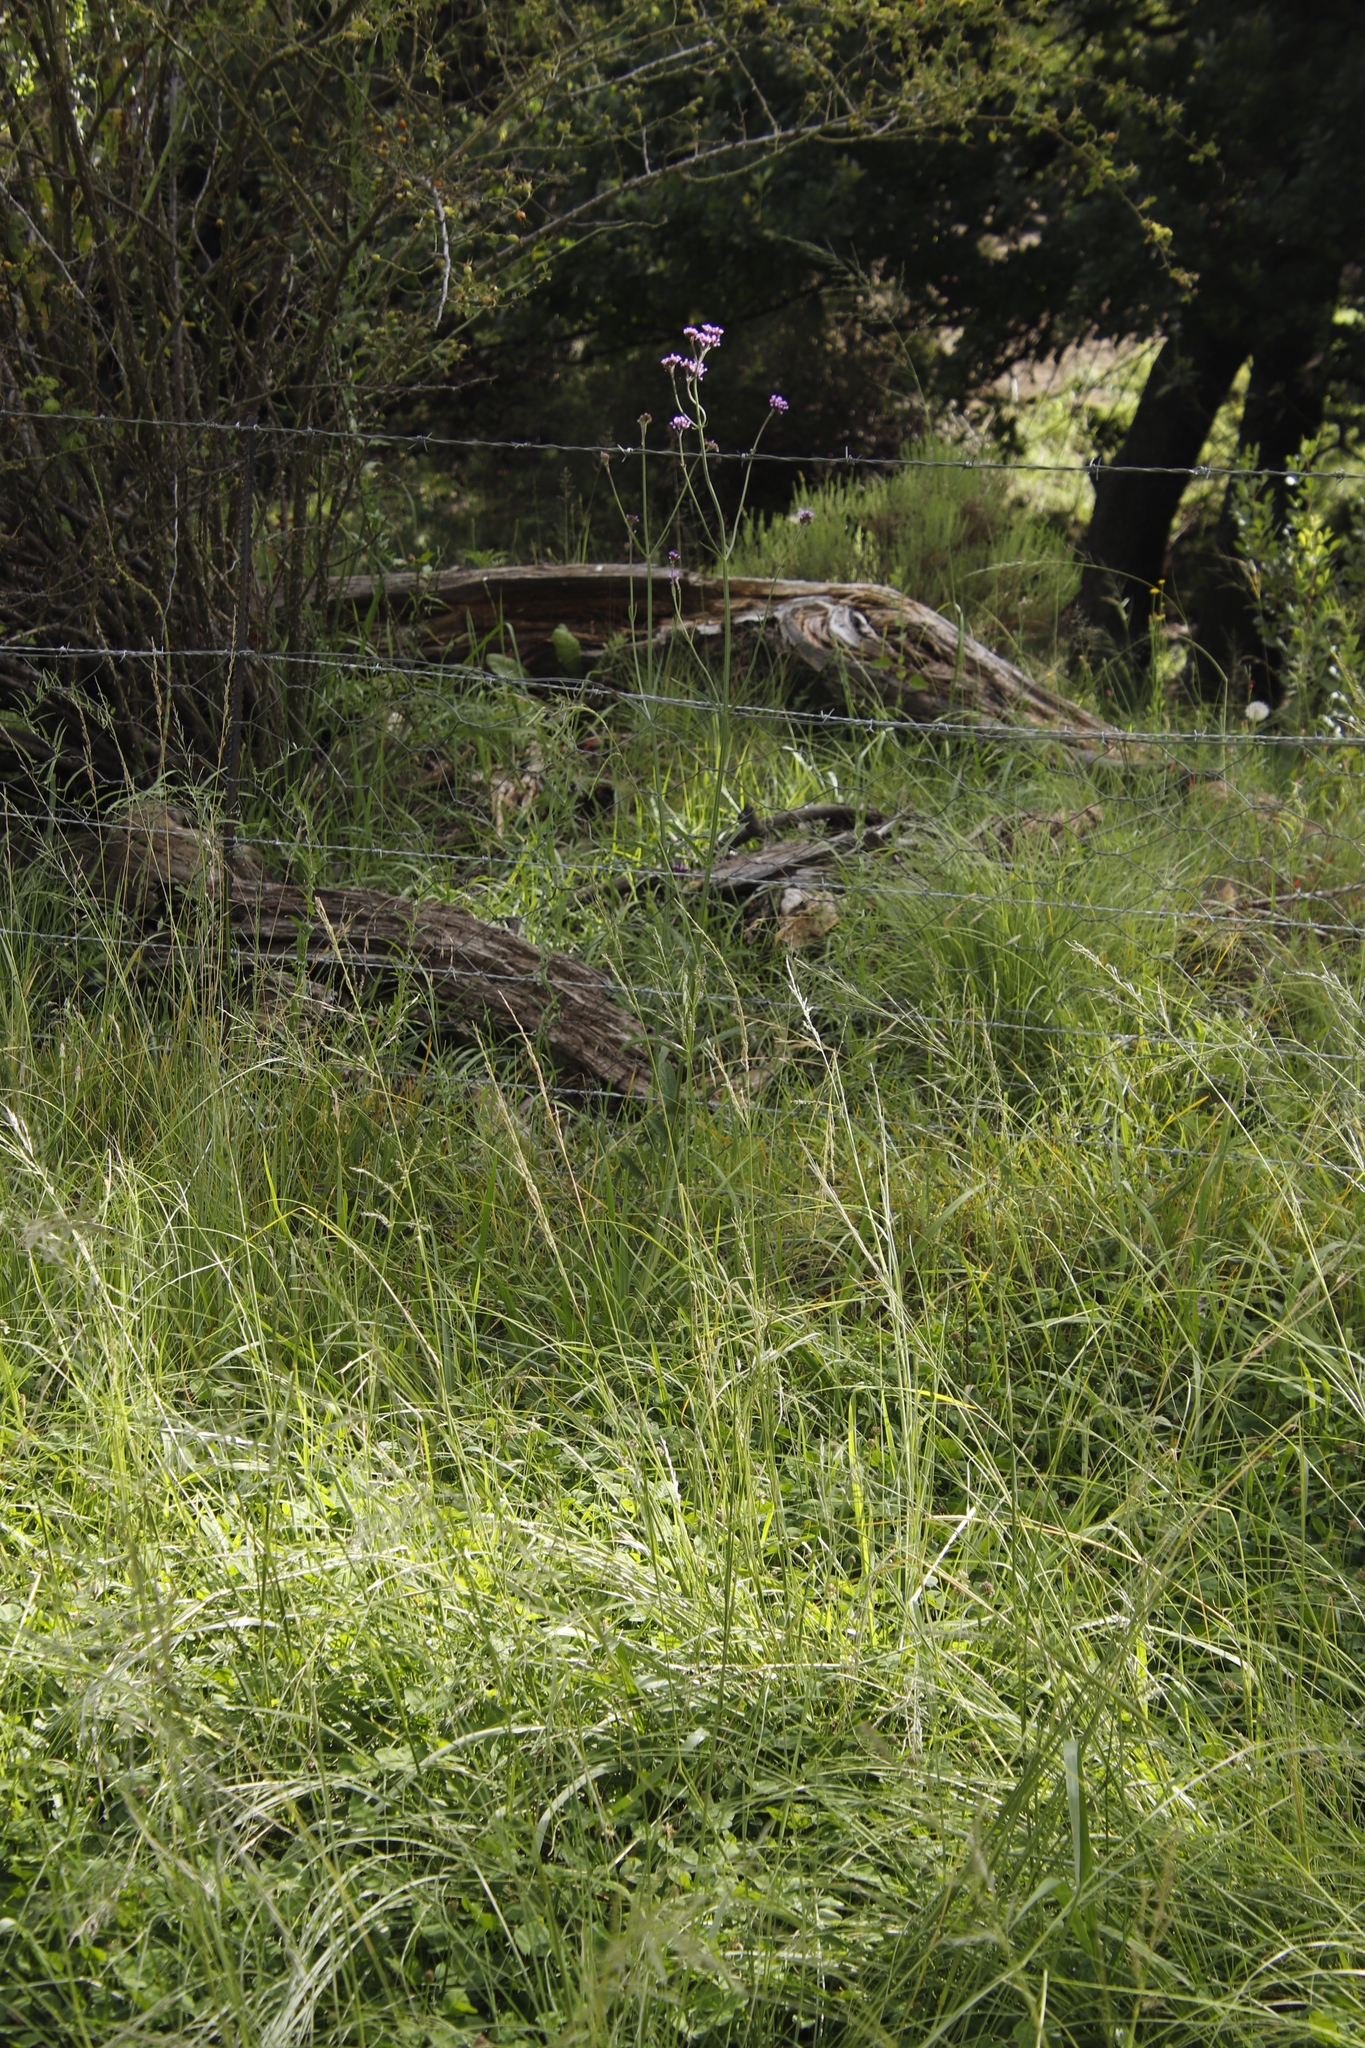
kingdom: Plantae
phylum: Tracheophyta
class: Magnoliopsida
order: Lamiales
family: Verbenaceae
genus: Verbena
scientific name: Verbena bonariensis
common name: Purpletop vervain
